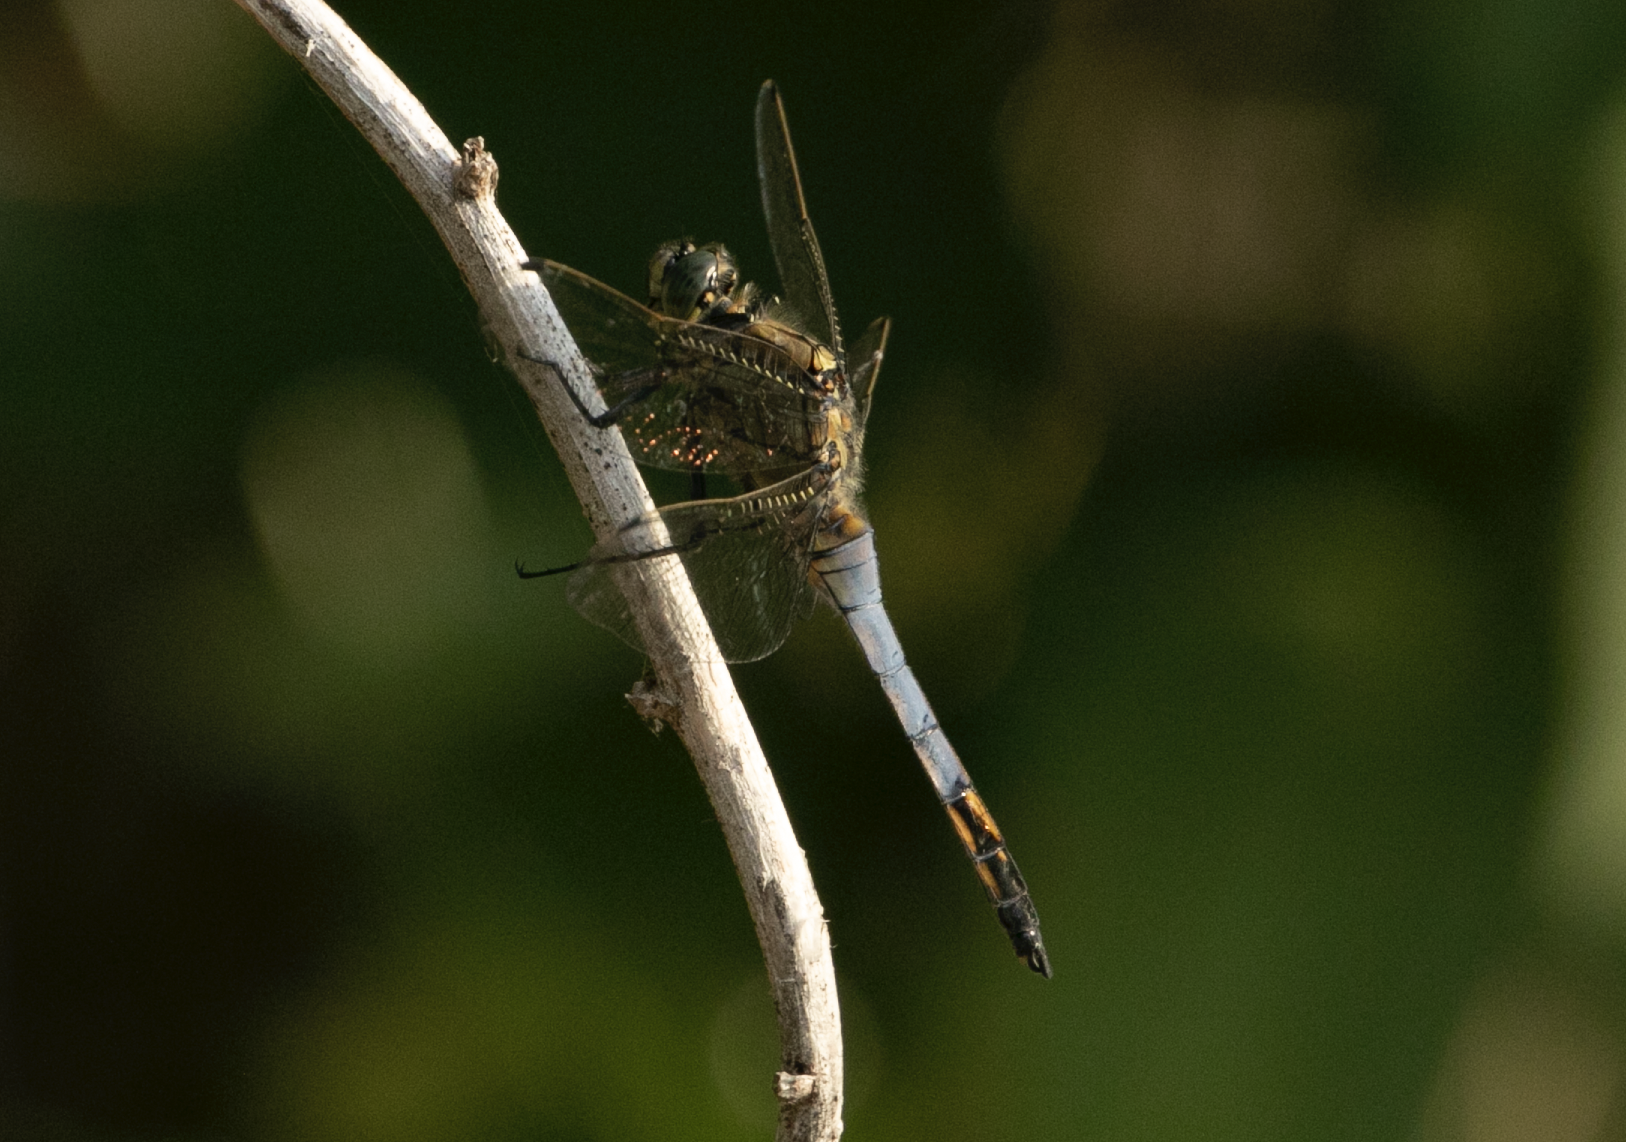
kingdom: Animalia
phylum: Arthropoda
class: Insecta
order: Odonata
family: Libellulidae
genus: Orthetrum
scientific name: Orthetrum cancellatum
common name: Black-tailed skimmer
